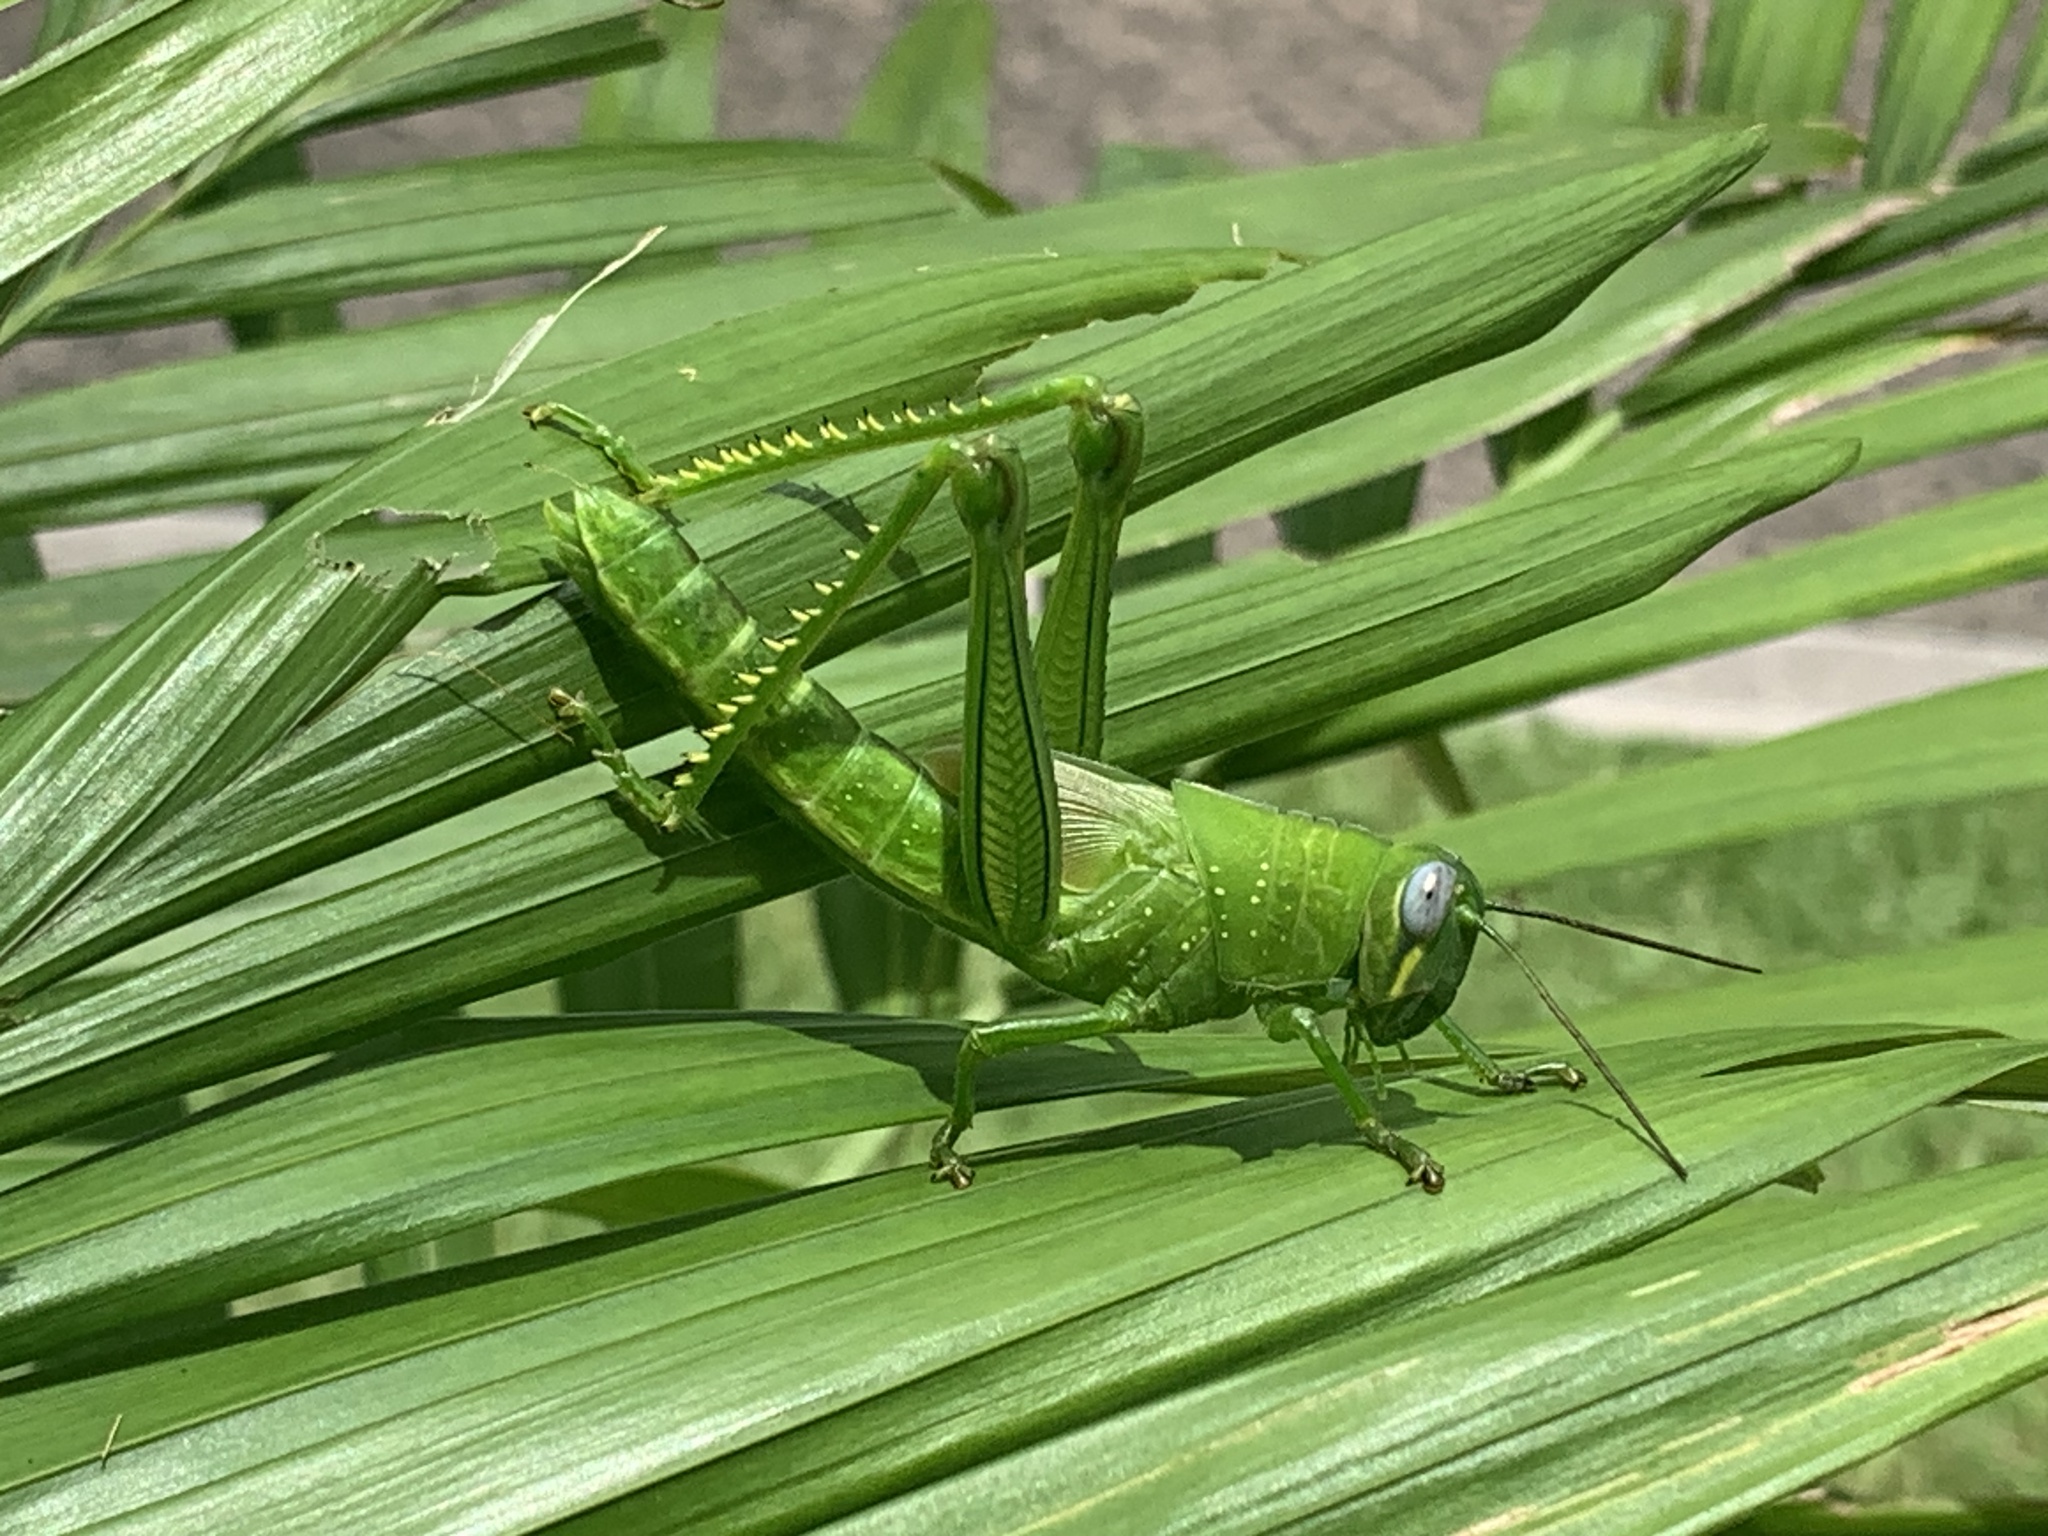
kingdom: Animalia
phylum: Arthropoda
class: Insecta
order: Orthoptera
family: Acrididae
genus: Valanga
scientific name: Valanga irregularis
